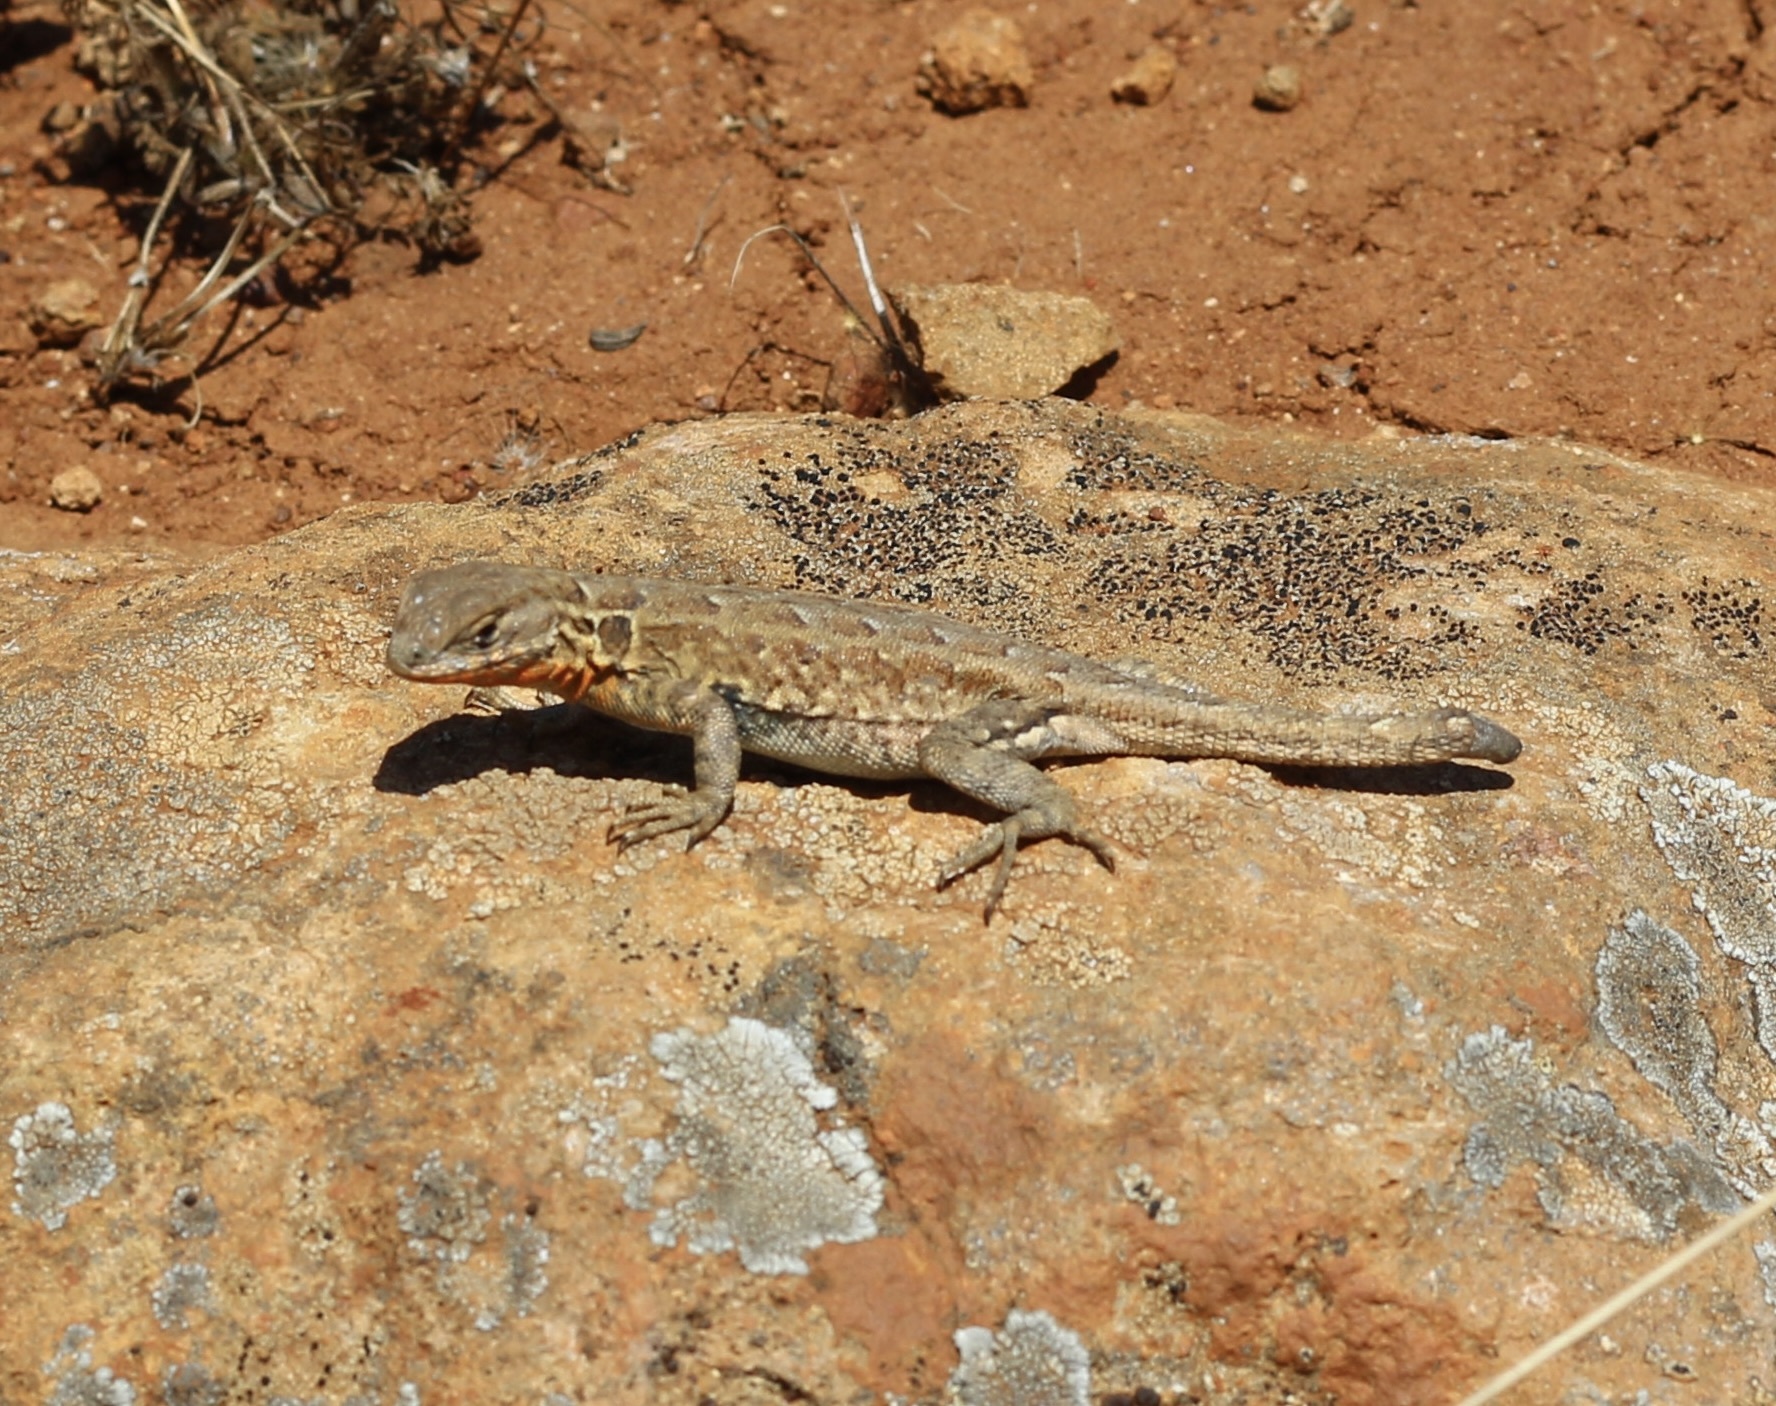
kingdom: Animalia
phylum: Chordata
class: Squamata
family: Phrynosomatidae
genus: Uta
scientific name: Uta stansburiana
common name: Side-blotched lizard
